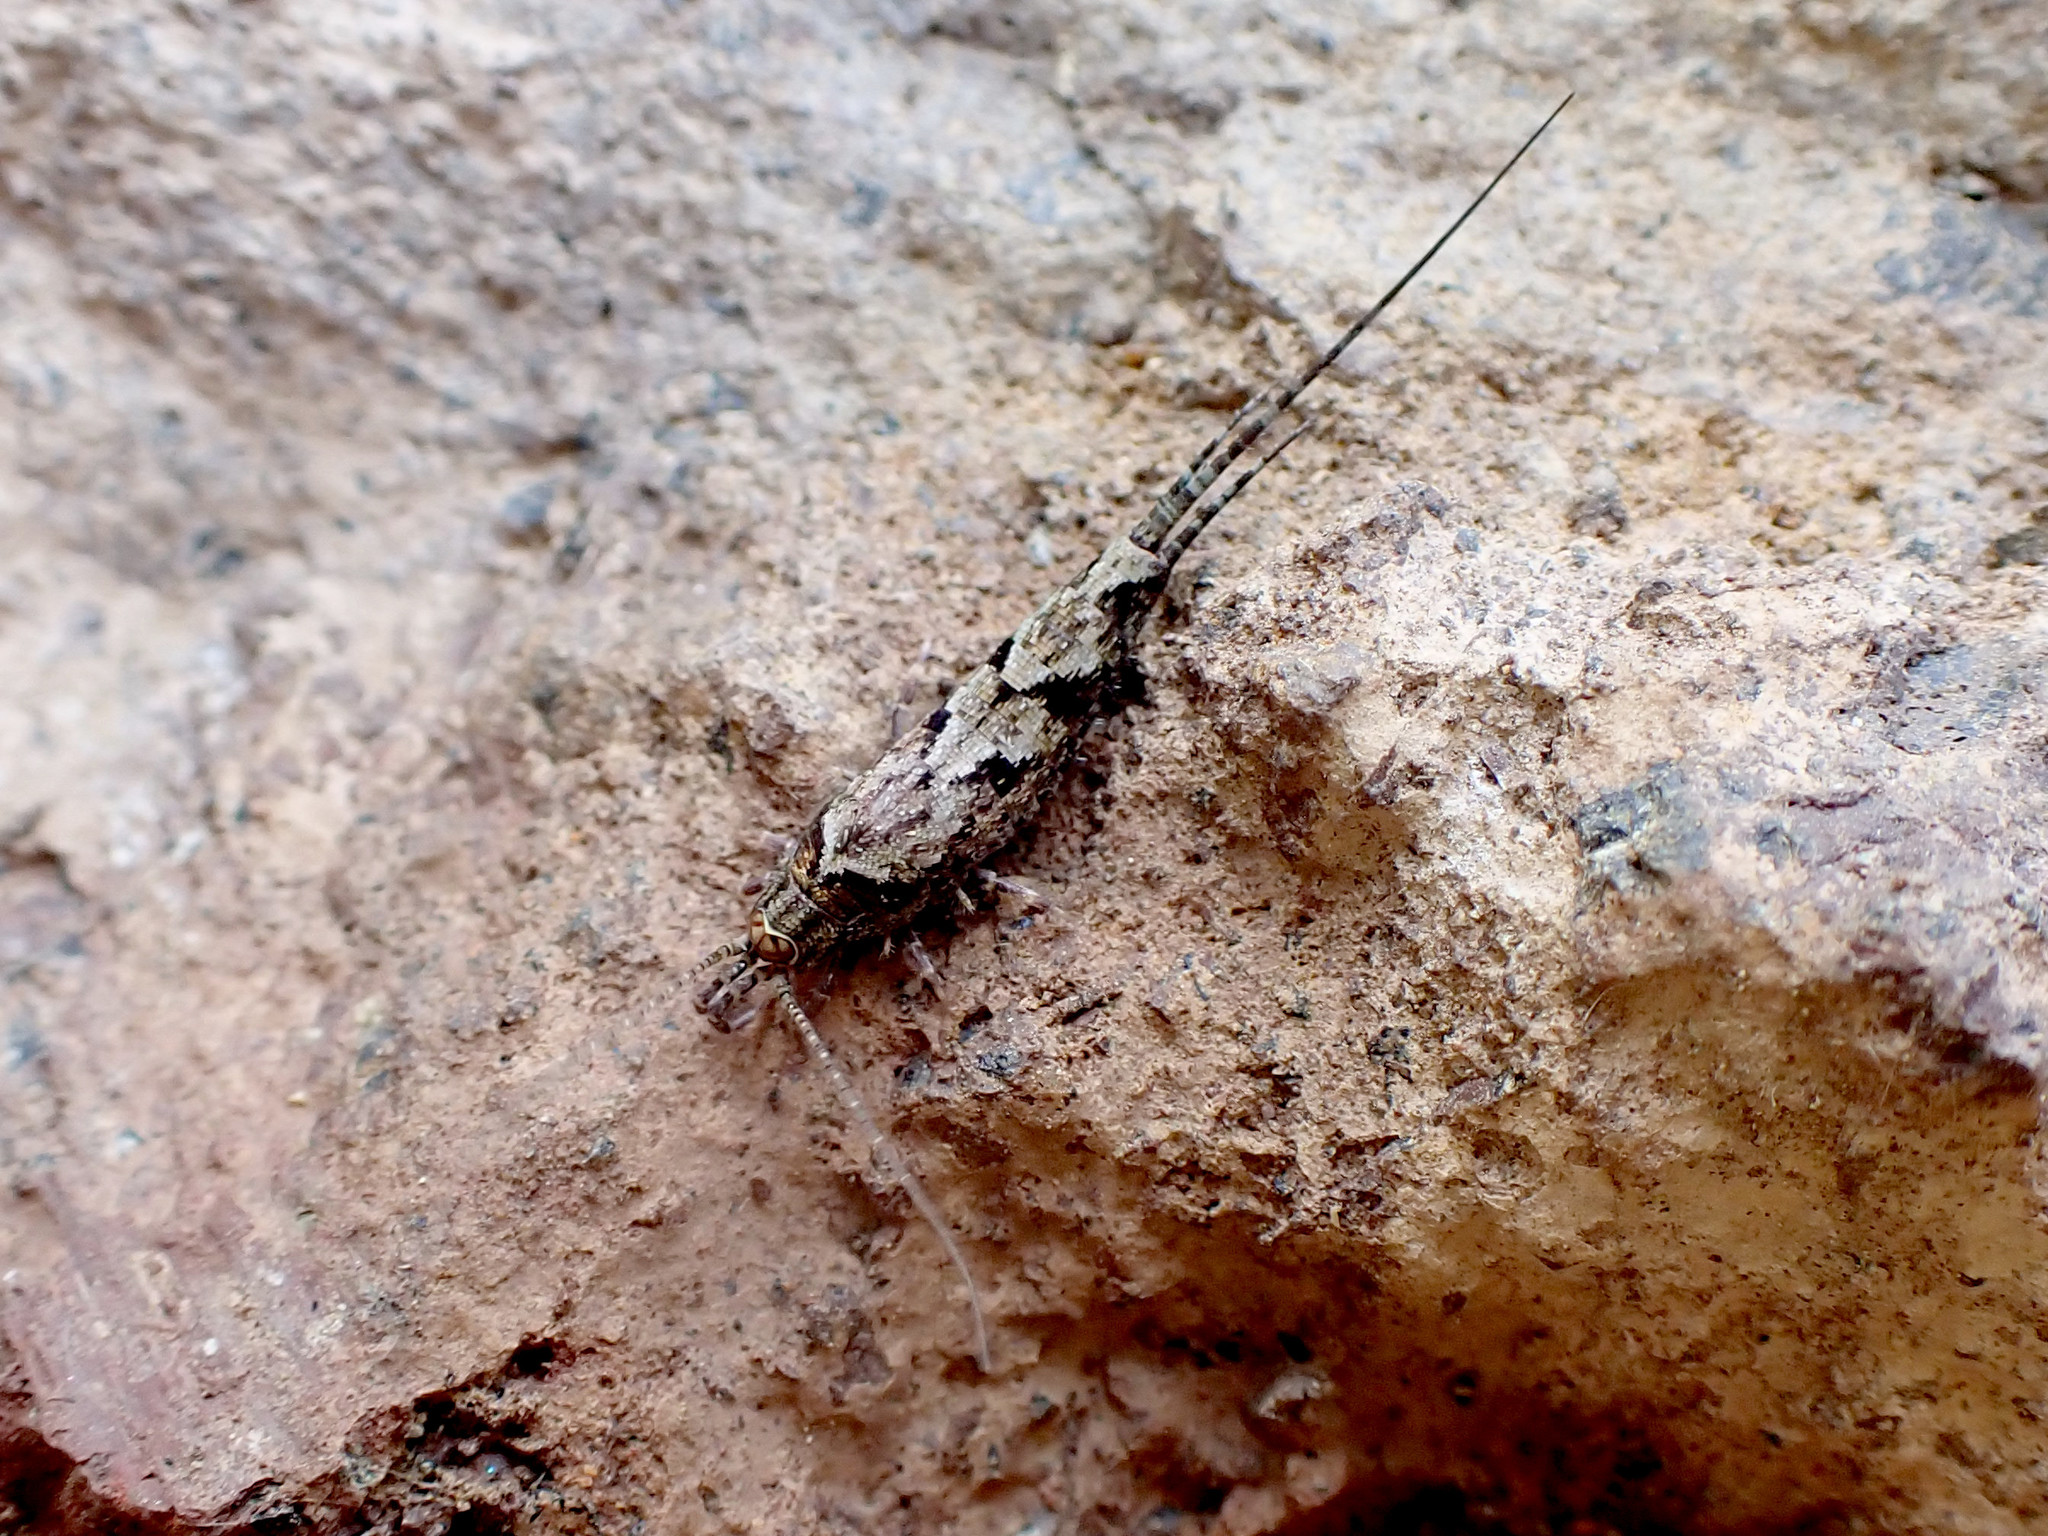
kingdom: Animalia
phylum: Arthropoda
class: Insecta
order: Archaeognatha
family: Machilidae
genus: Lepismachilis
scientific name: Lepismachilis y-signata
